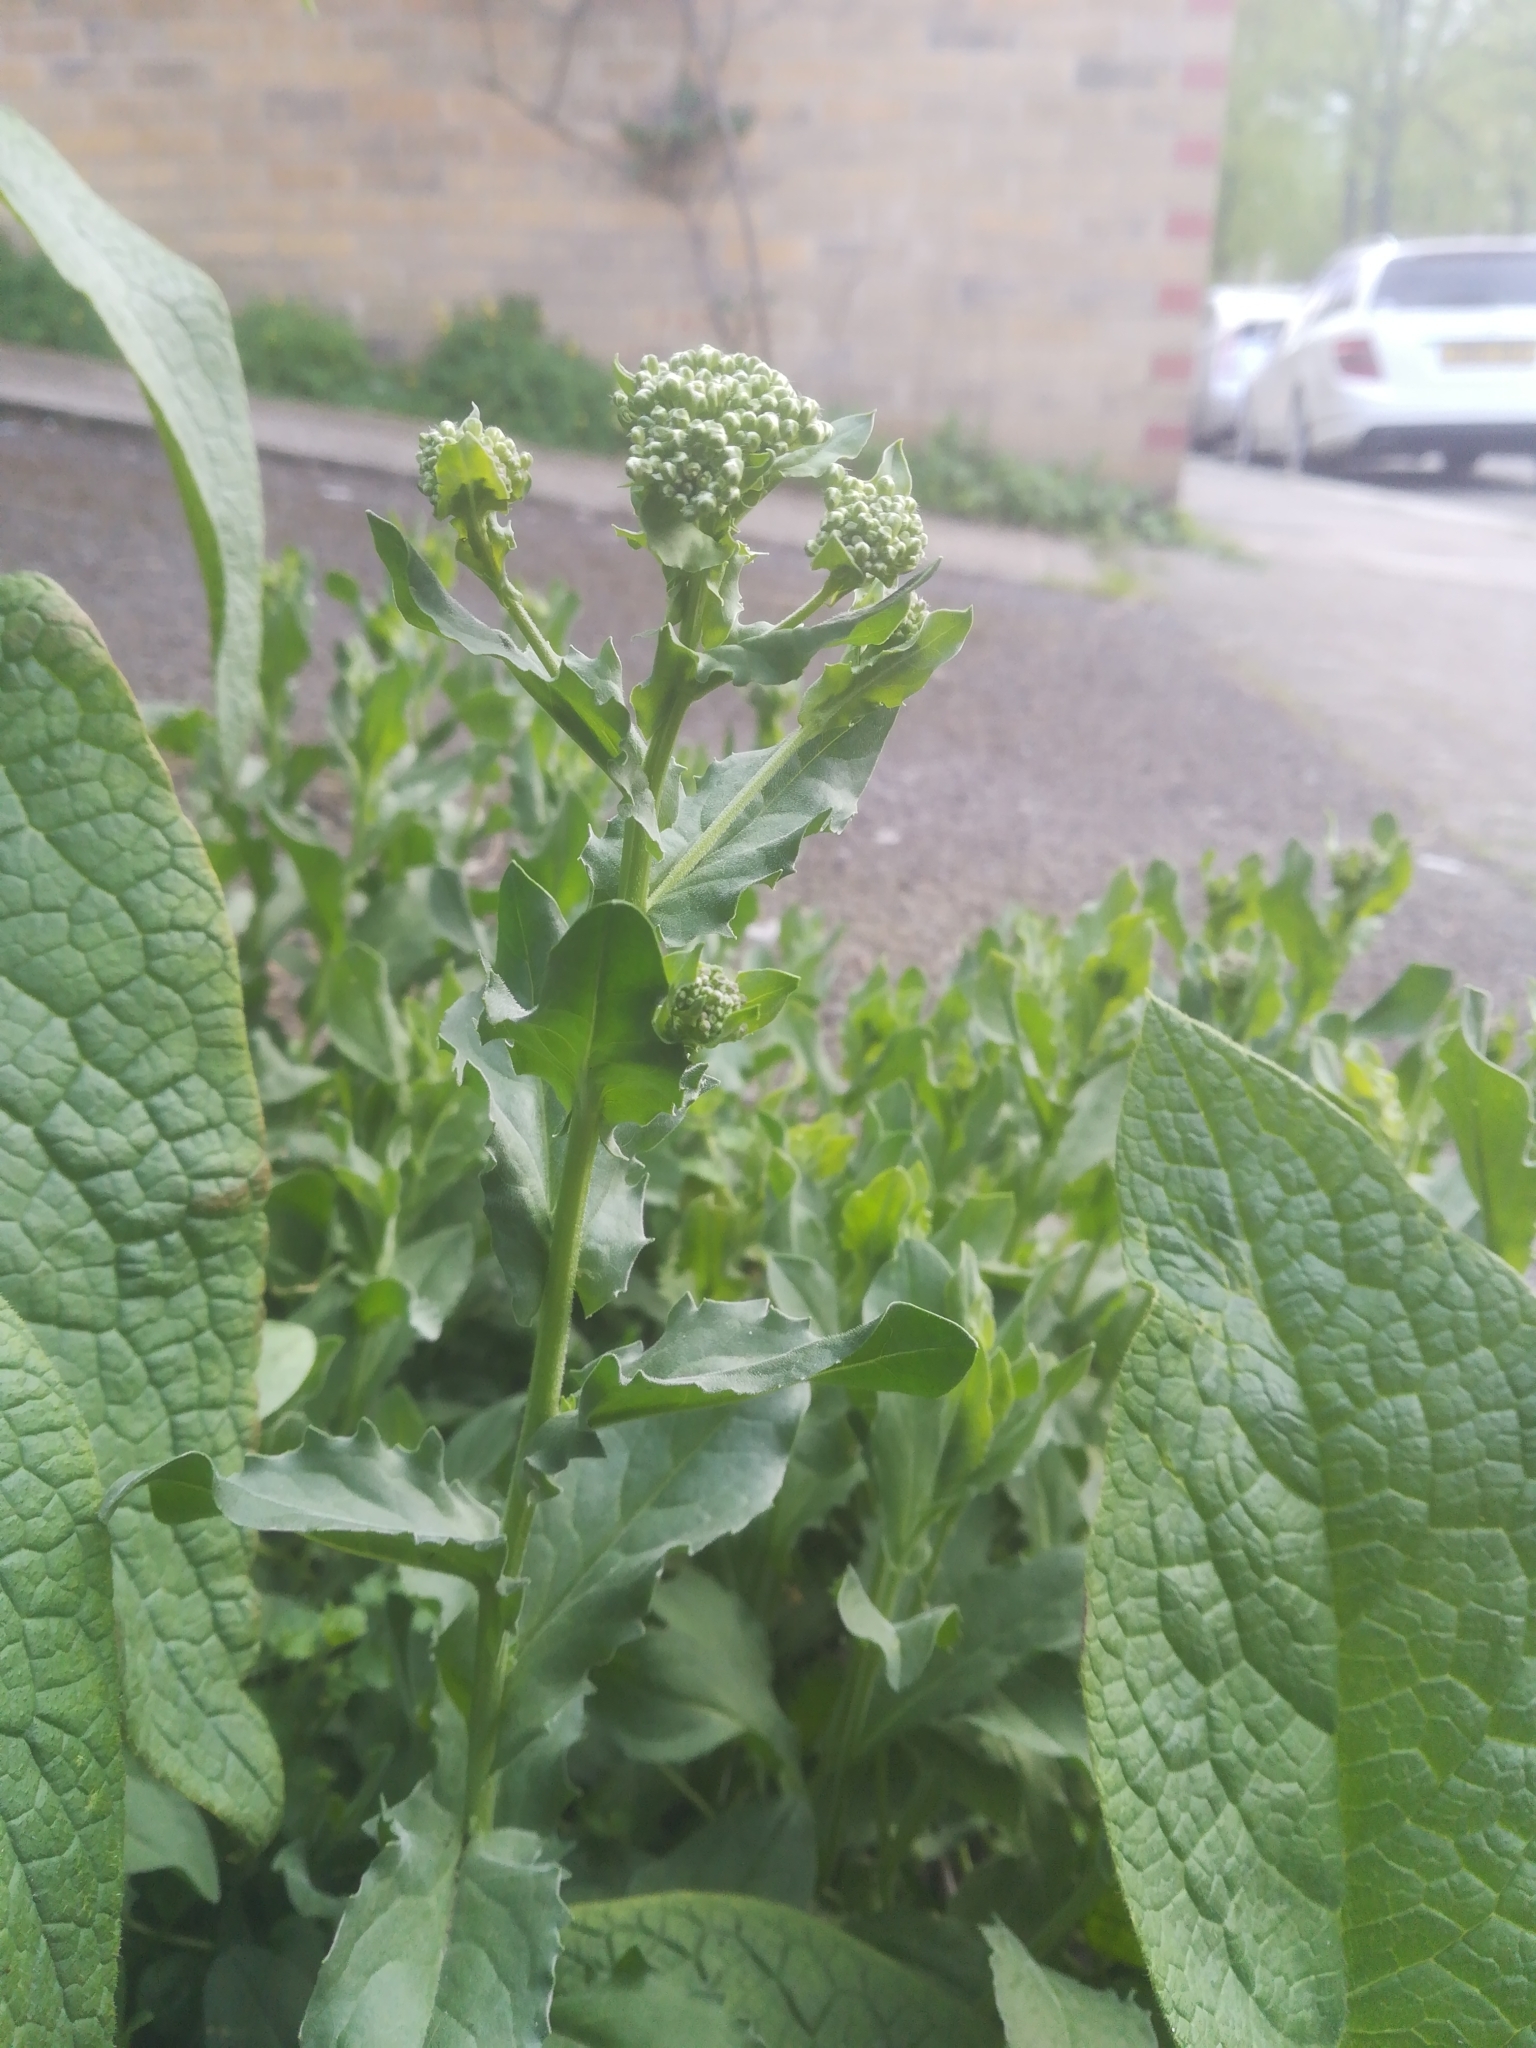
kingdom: Plantae
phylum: Tracheophyta
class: Magnoliopsida
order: Brassicales
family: Brassicaceae
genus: Lepidium
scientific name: Lepidium draba
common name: Hoary cress
